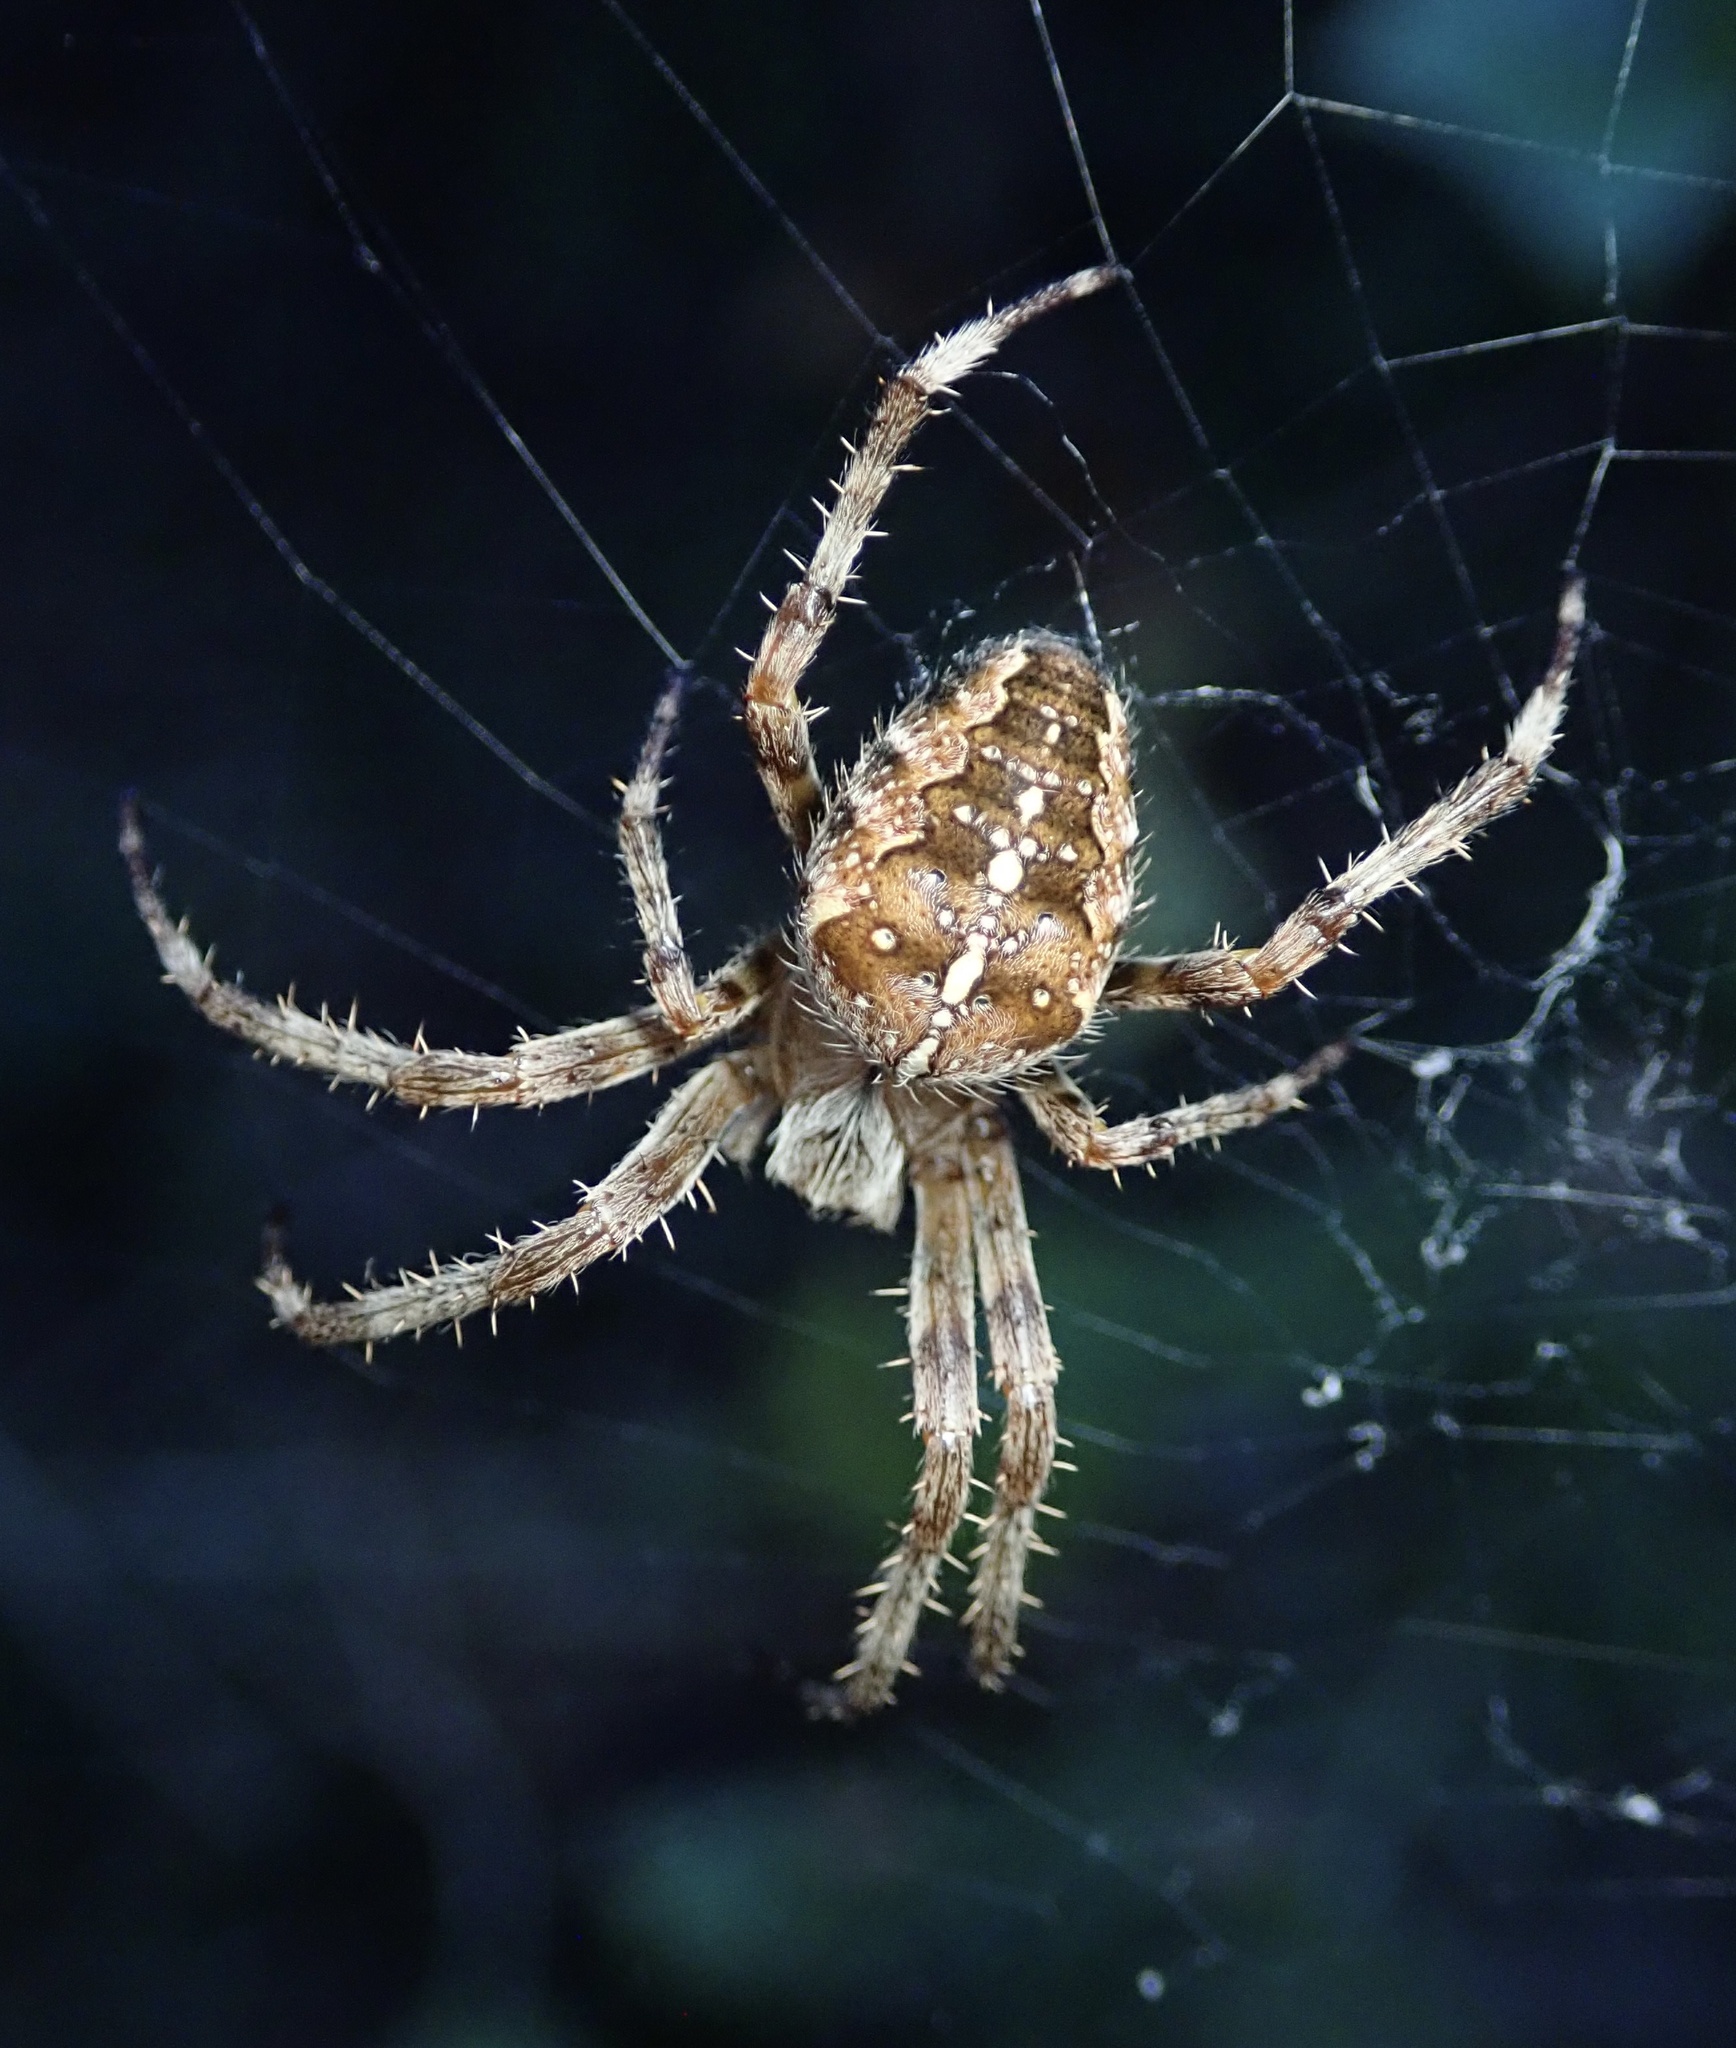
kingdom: Animalia
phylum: Arthropoda
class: Arachnida
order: Araneae
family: Araneidae
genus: Araneus
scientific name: Araneus diadematus
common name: Cross orbweaver
